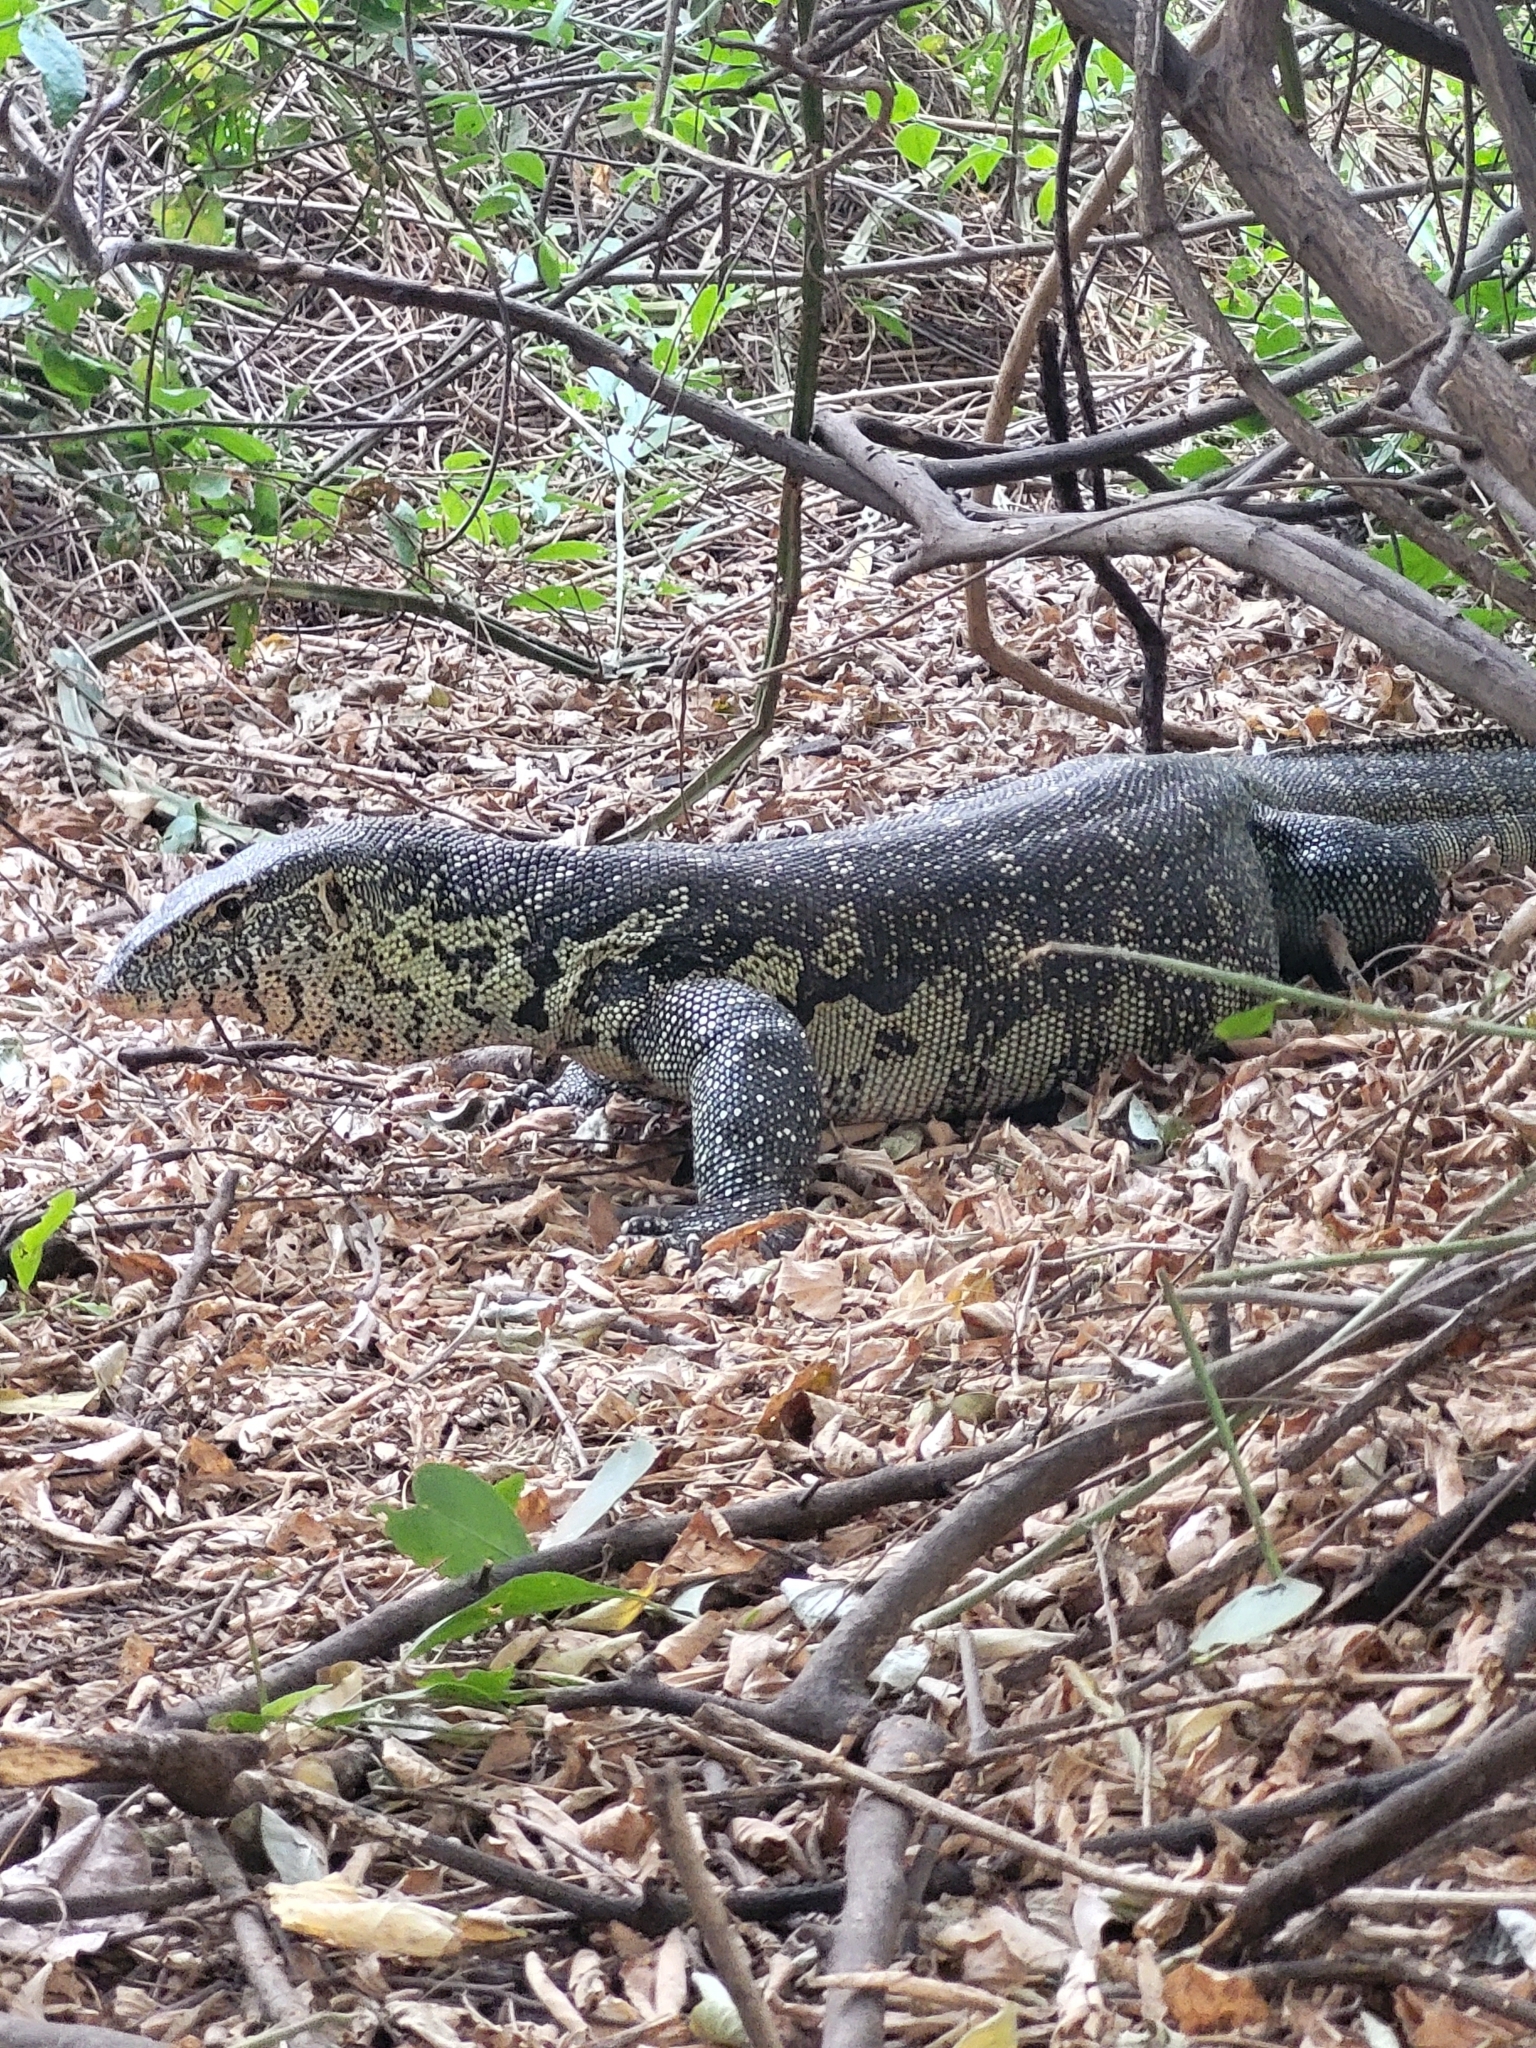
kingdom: Animalia
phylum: Chordata
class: Squamata
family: Varanidae
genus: Varanus
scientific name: Varanus niloticus
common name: Nile monitor
